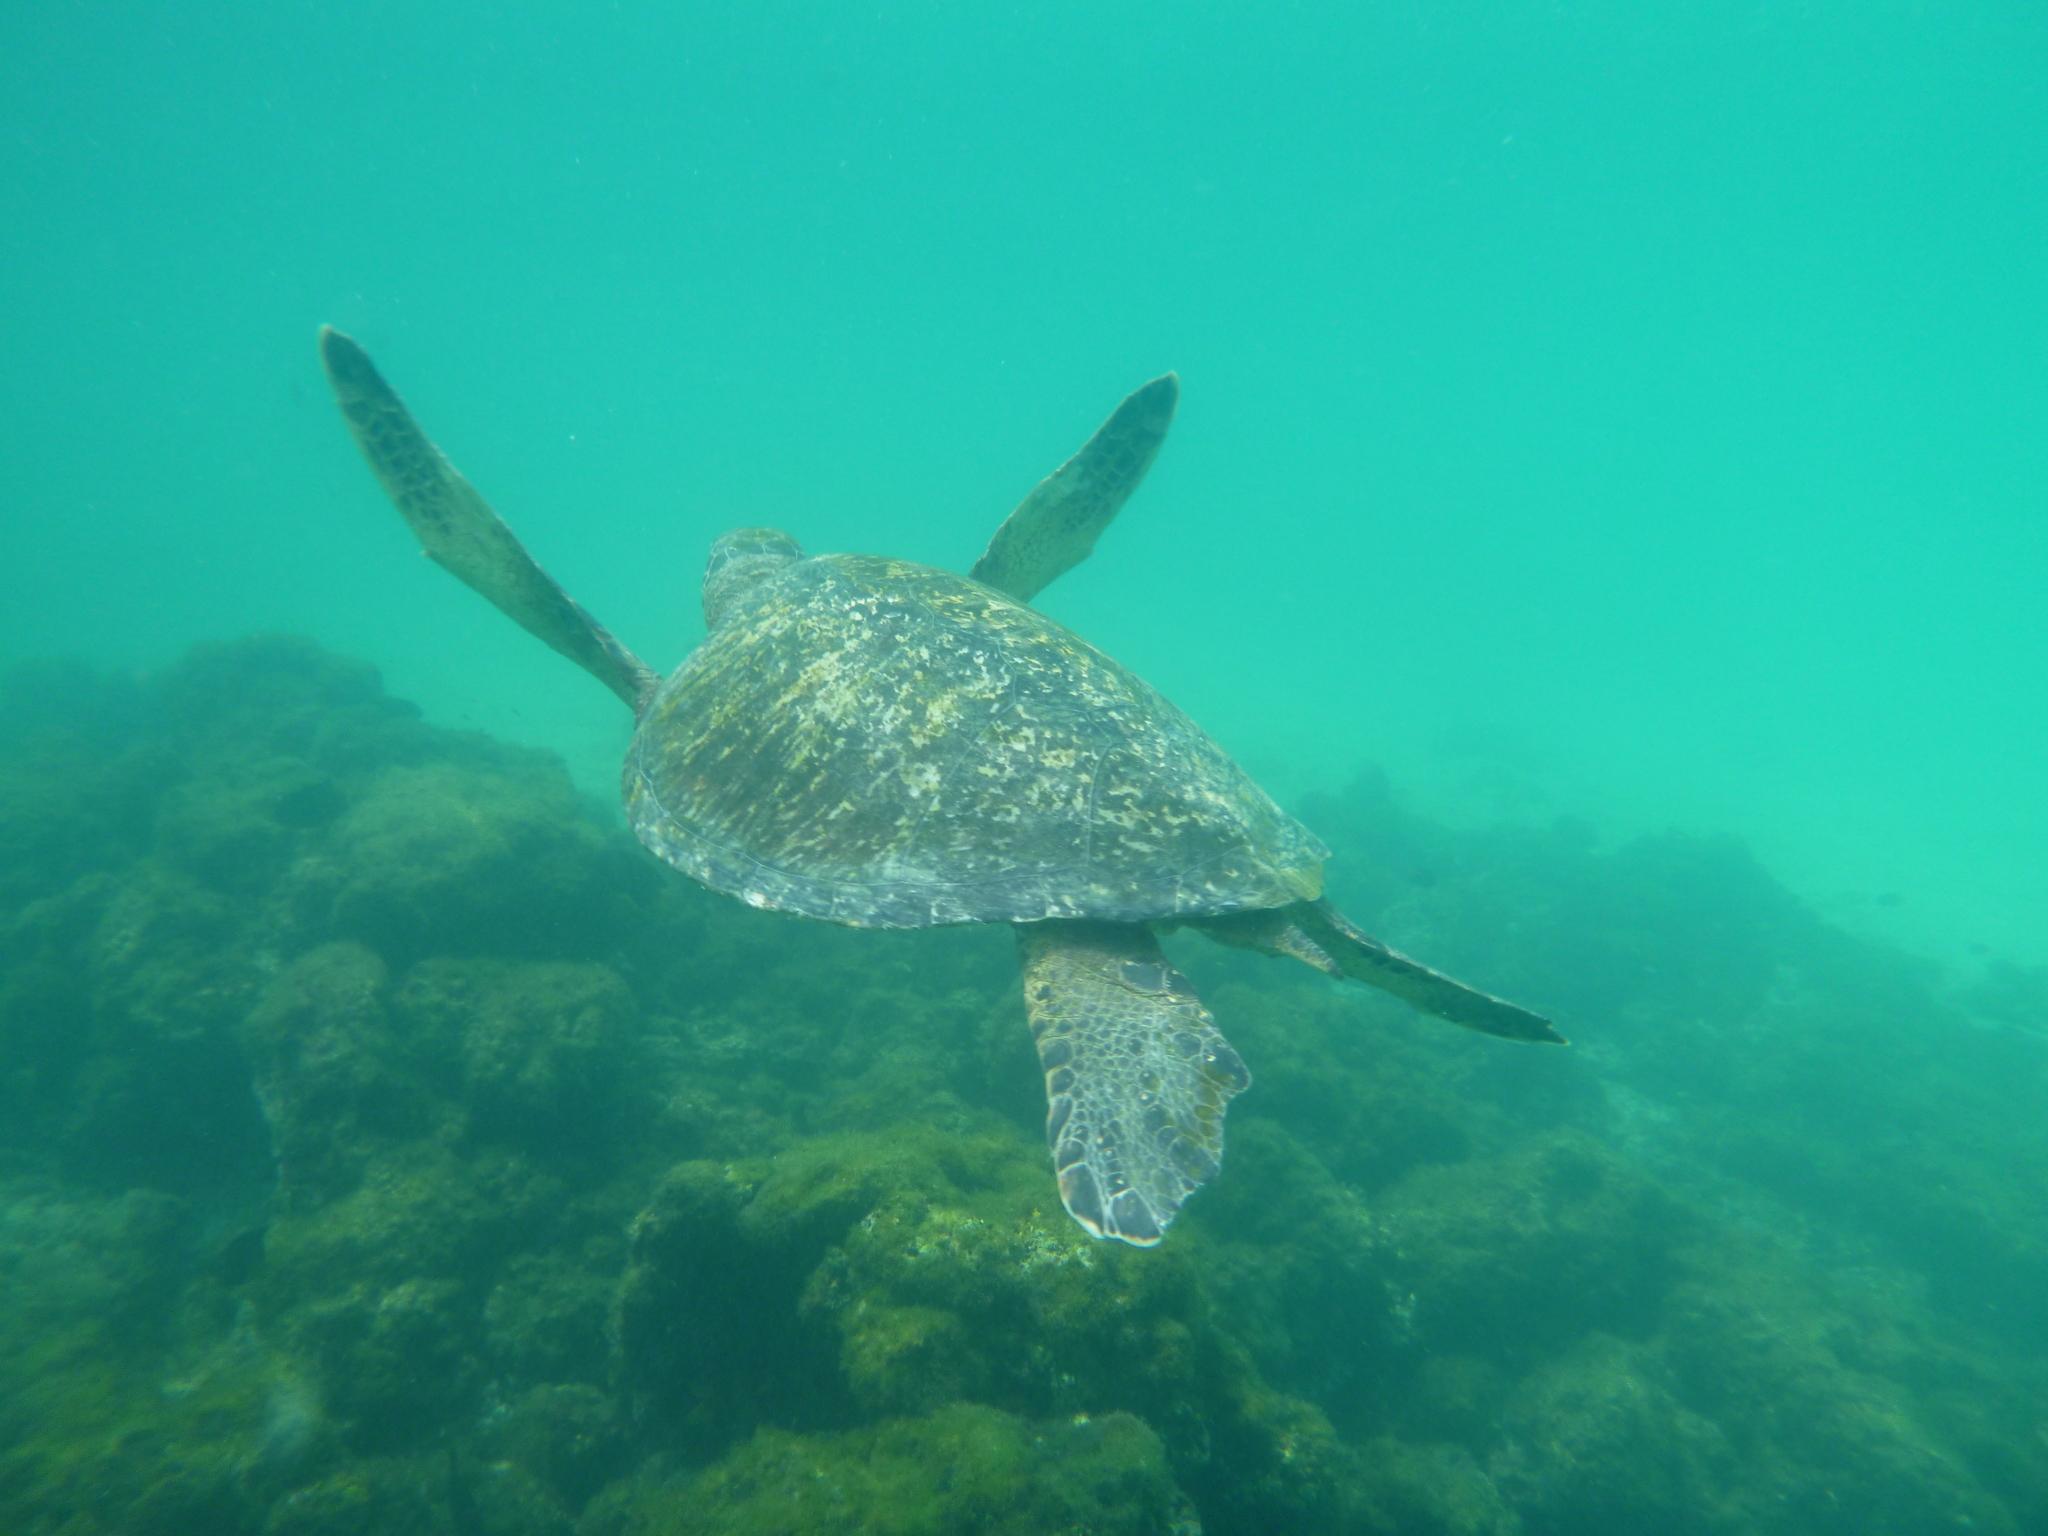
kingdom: Animalia
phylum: Chordata
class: Testudines
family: Cheloniidae
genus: Chelonia
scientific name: Chelonia mydas
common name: Green turtle
